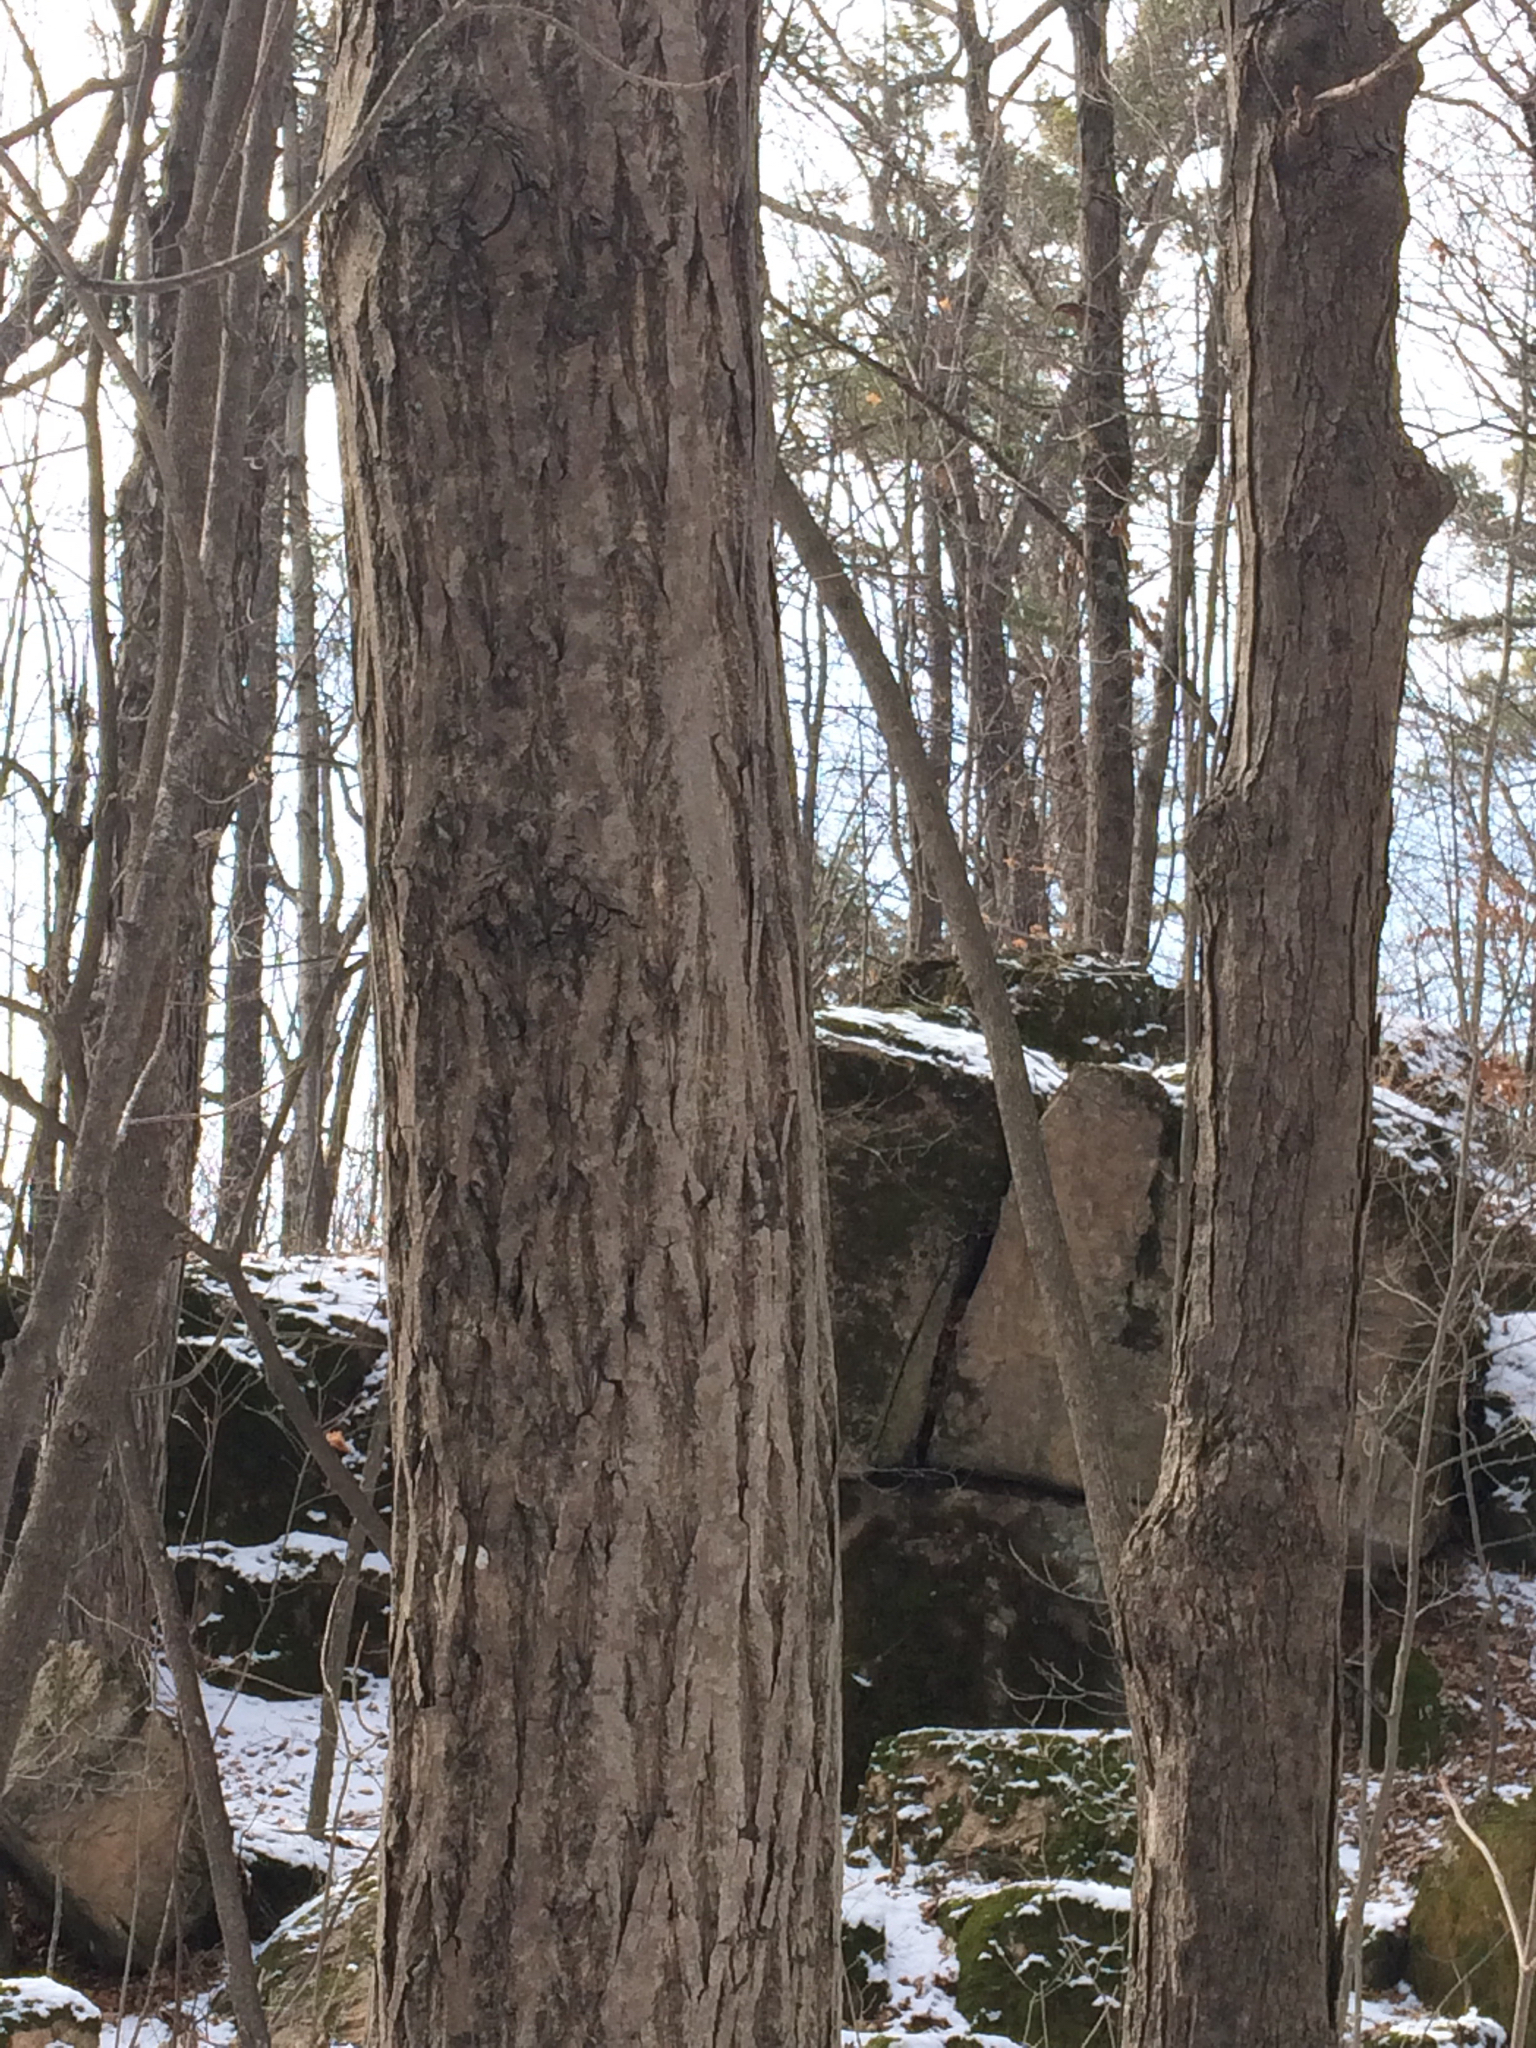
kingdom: Plantae
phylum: Tracheophyta
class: Magnoliopsida
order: Fagales
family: Juglandaceae
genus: Juglans
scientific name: Juglans cinerea
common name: Butternut
